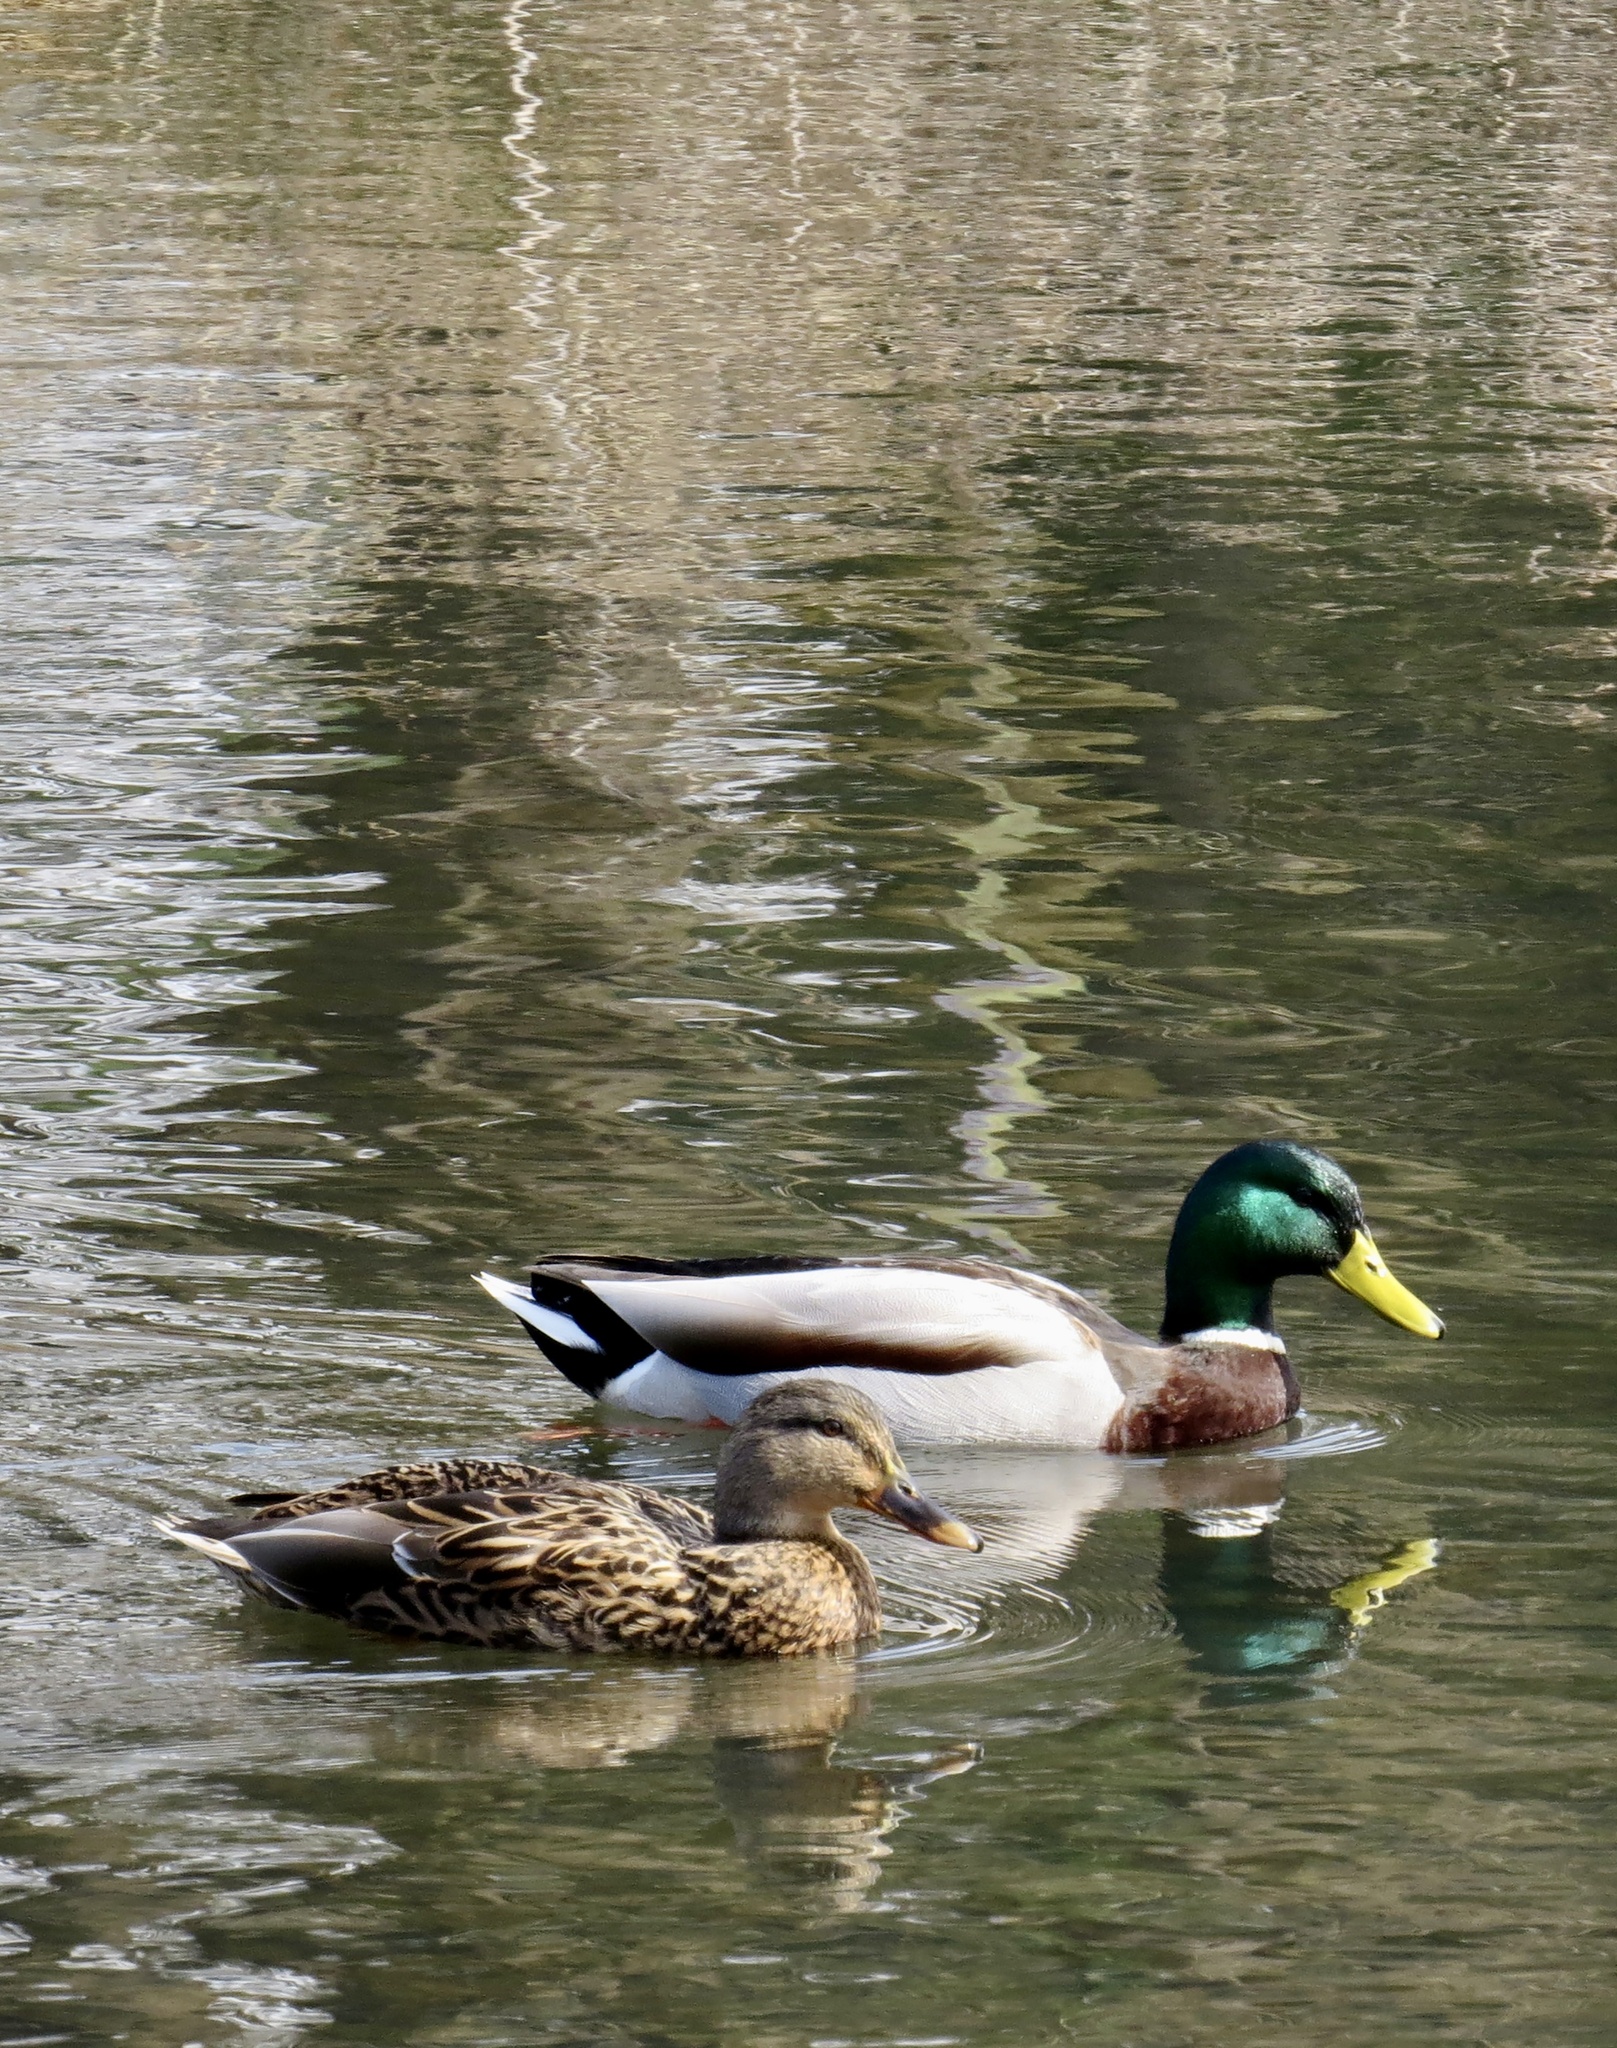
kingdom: Animalia
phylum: Chordata
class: Aves
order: Anseriformes
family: Anatidae
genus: Anas
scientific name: Anas platyrhynchos
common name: Mallard
